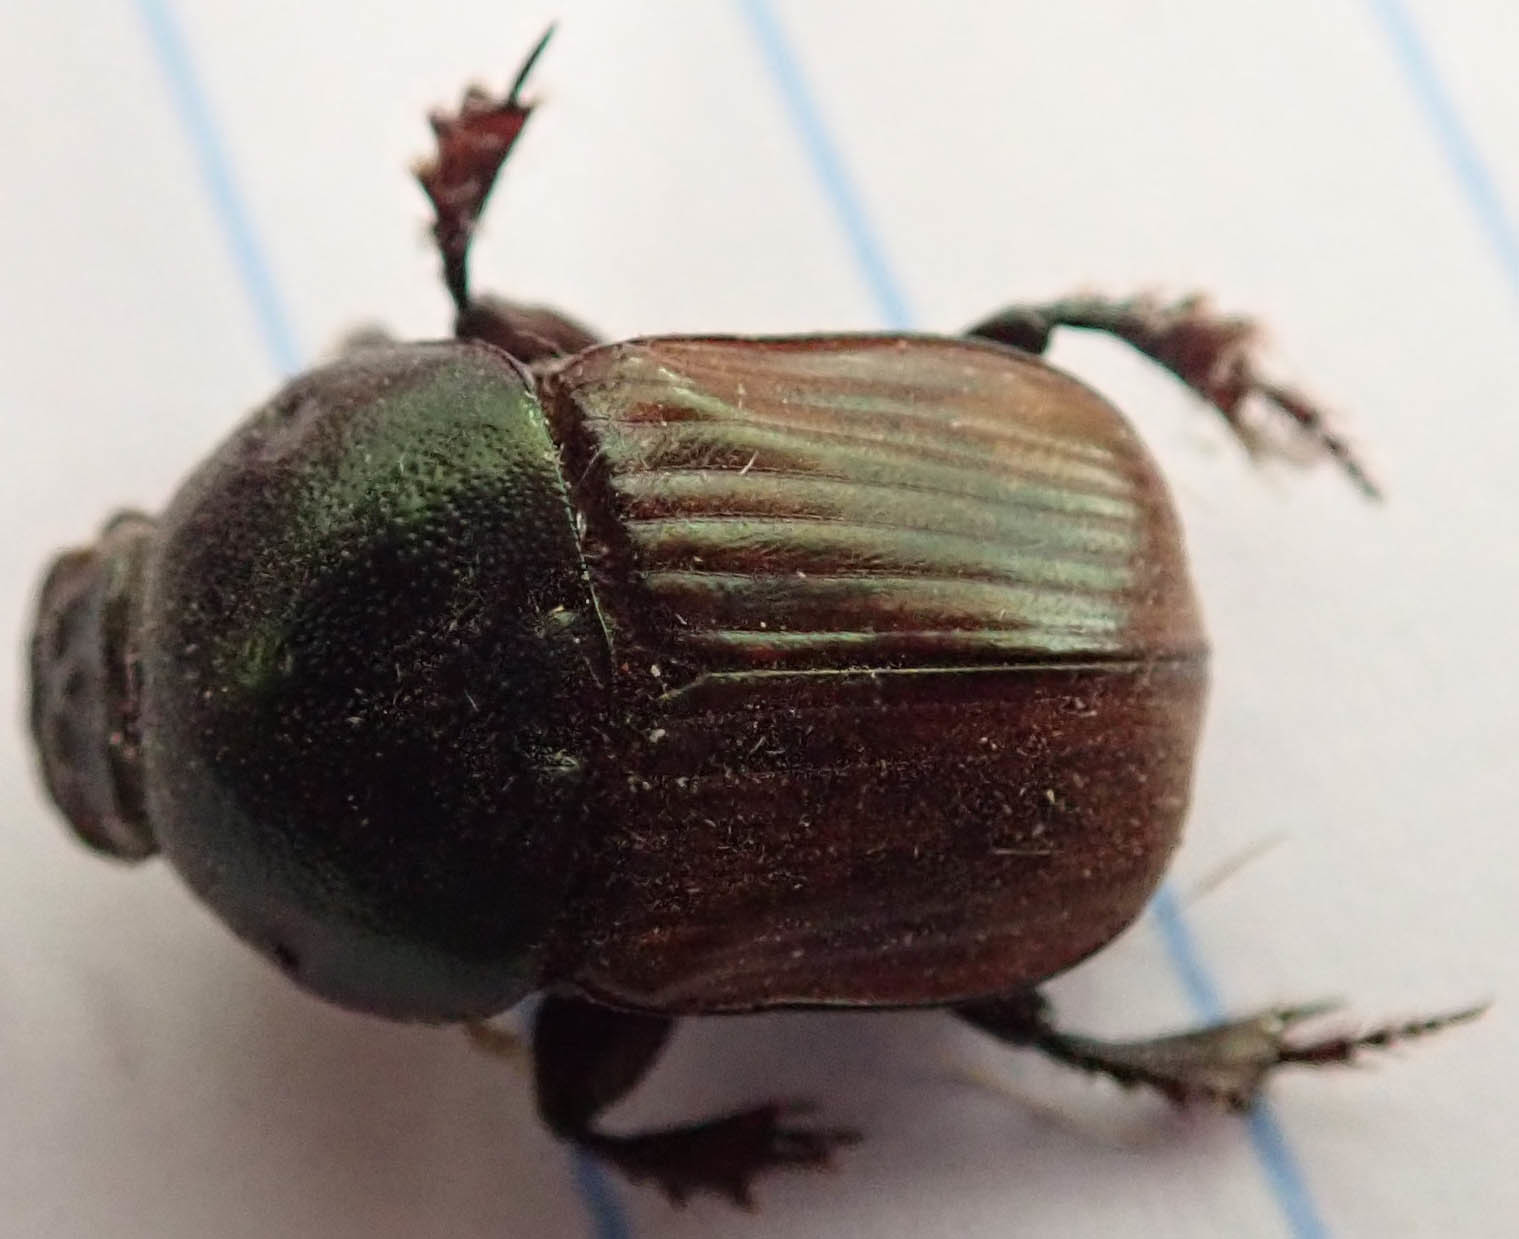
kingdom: Animalia
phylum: Arthropoda
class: Insecta
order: Coleoptera
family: Scarabaeidae
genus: Onitis
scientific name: Onitis alexis
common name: Alexis dung beetle
